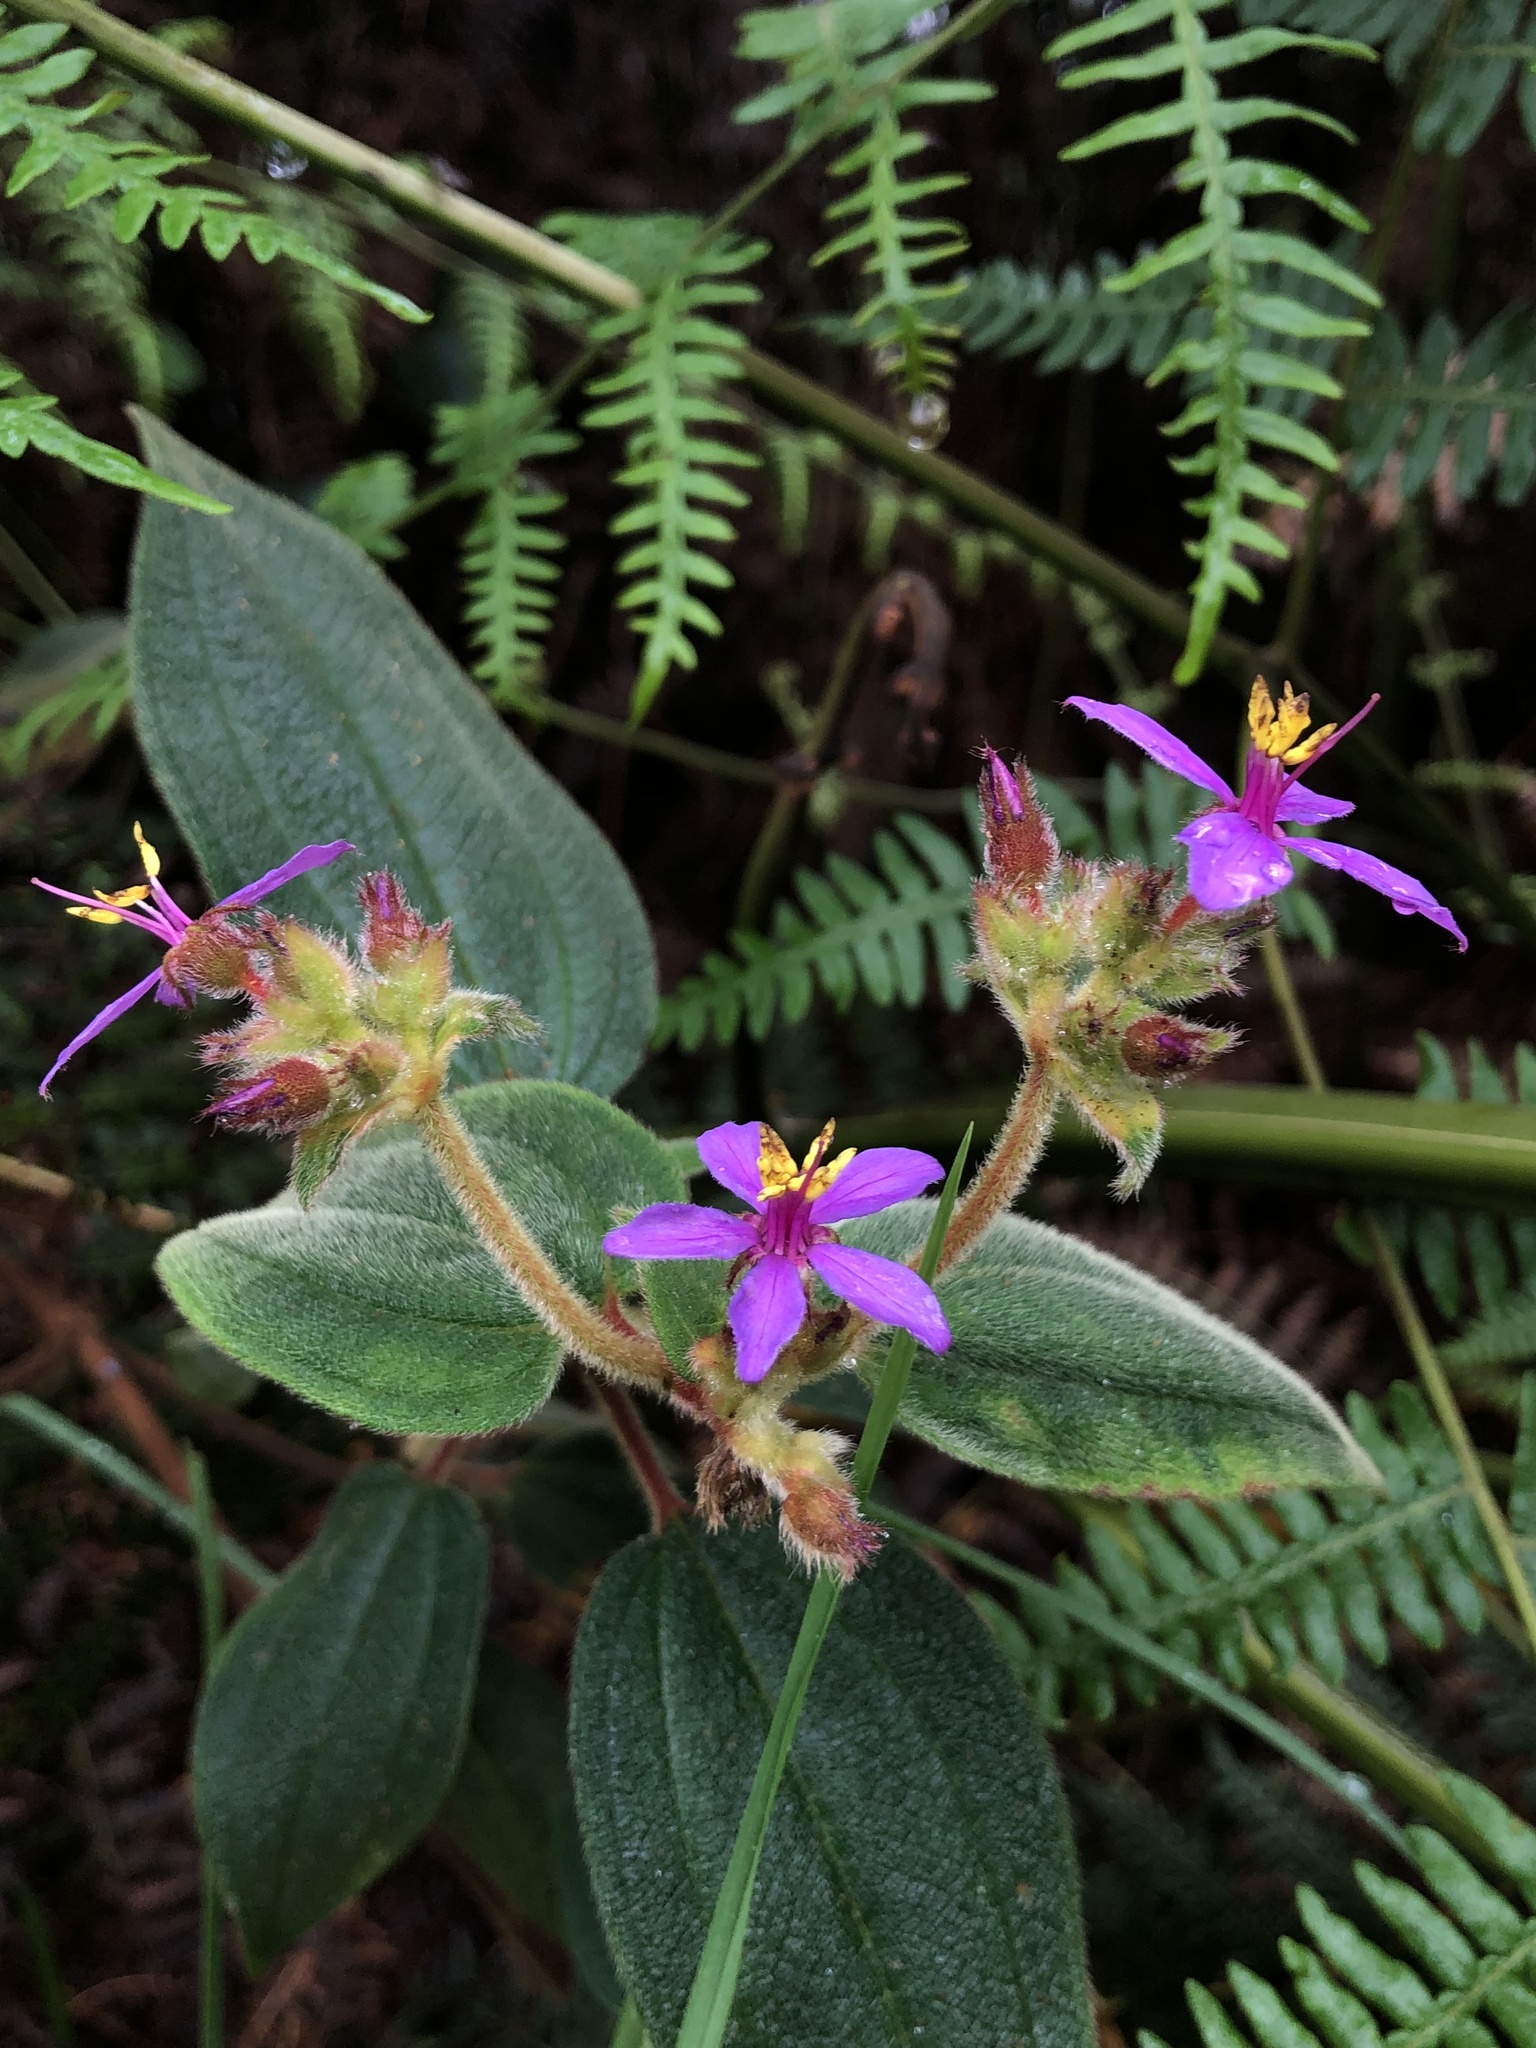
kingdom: Plantae
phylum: Tracheophyta
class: Magnoliopsida
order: Myrtales
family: Melastomataceae
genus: Chaetogastra
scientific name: Chaetogastra mollis
